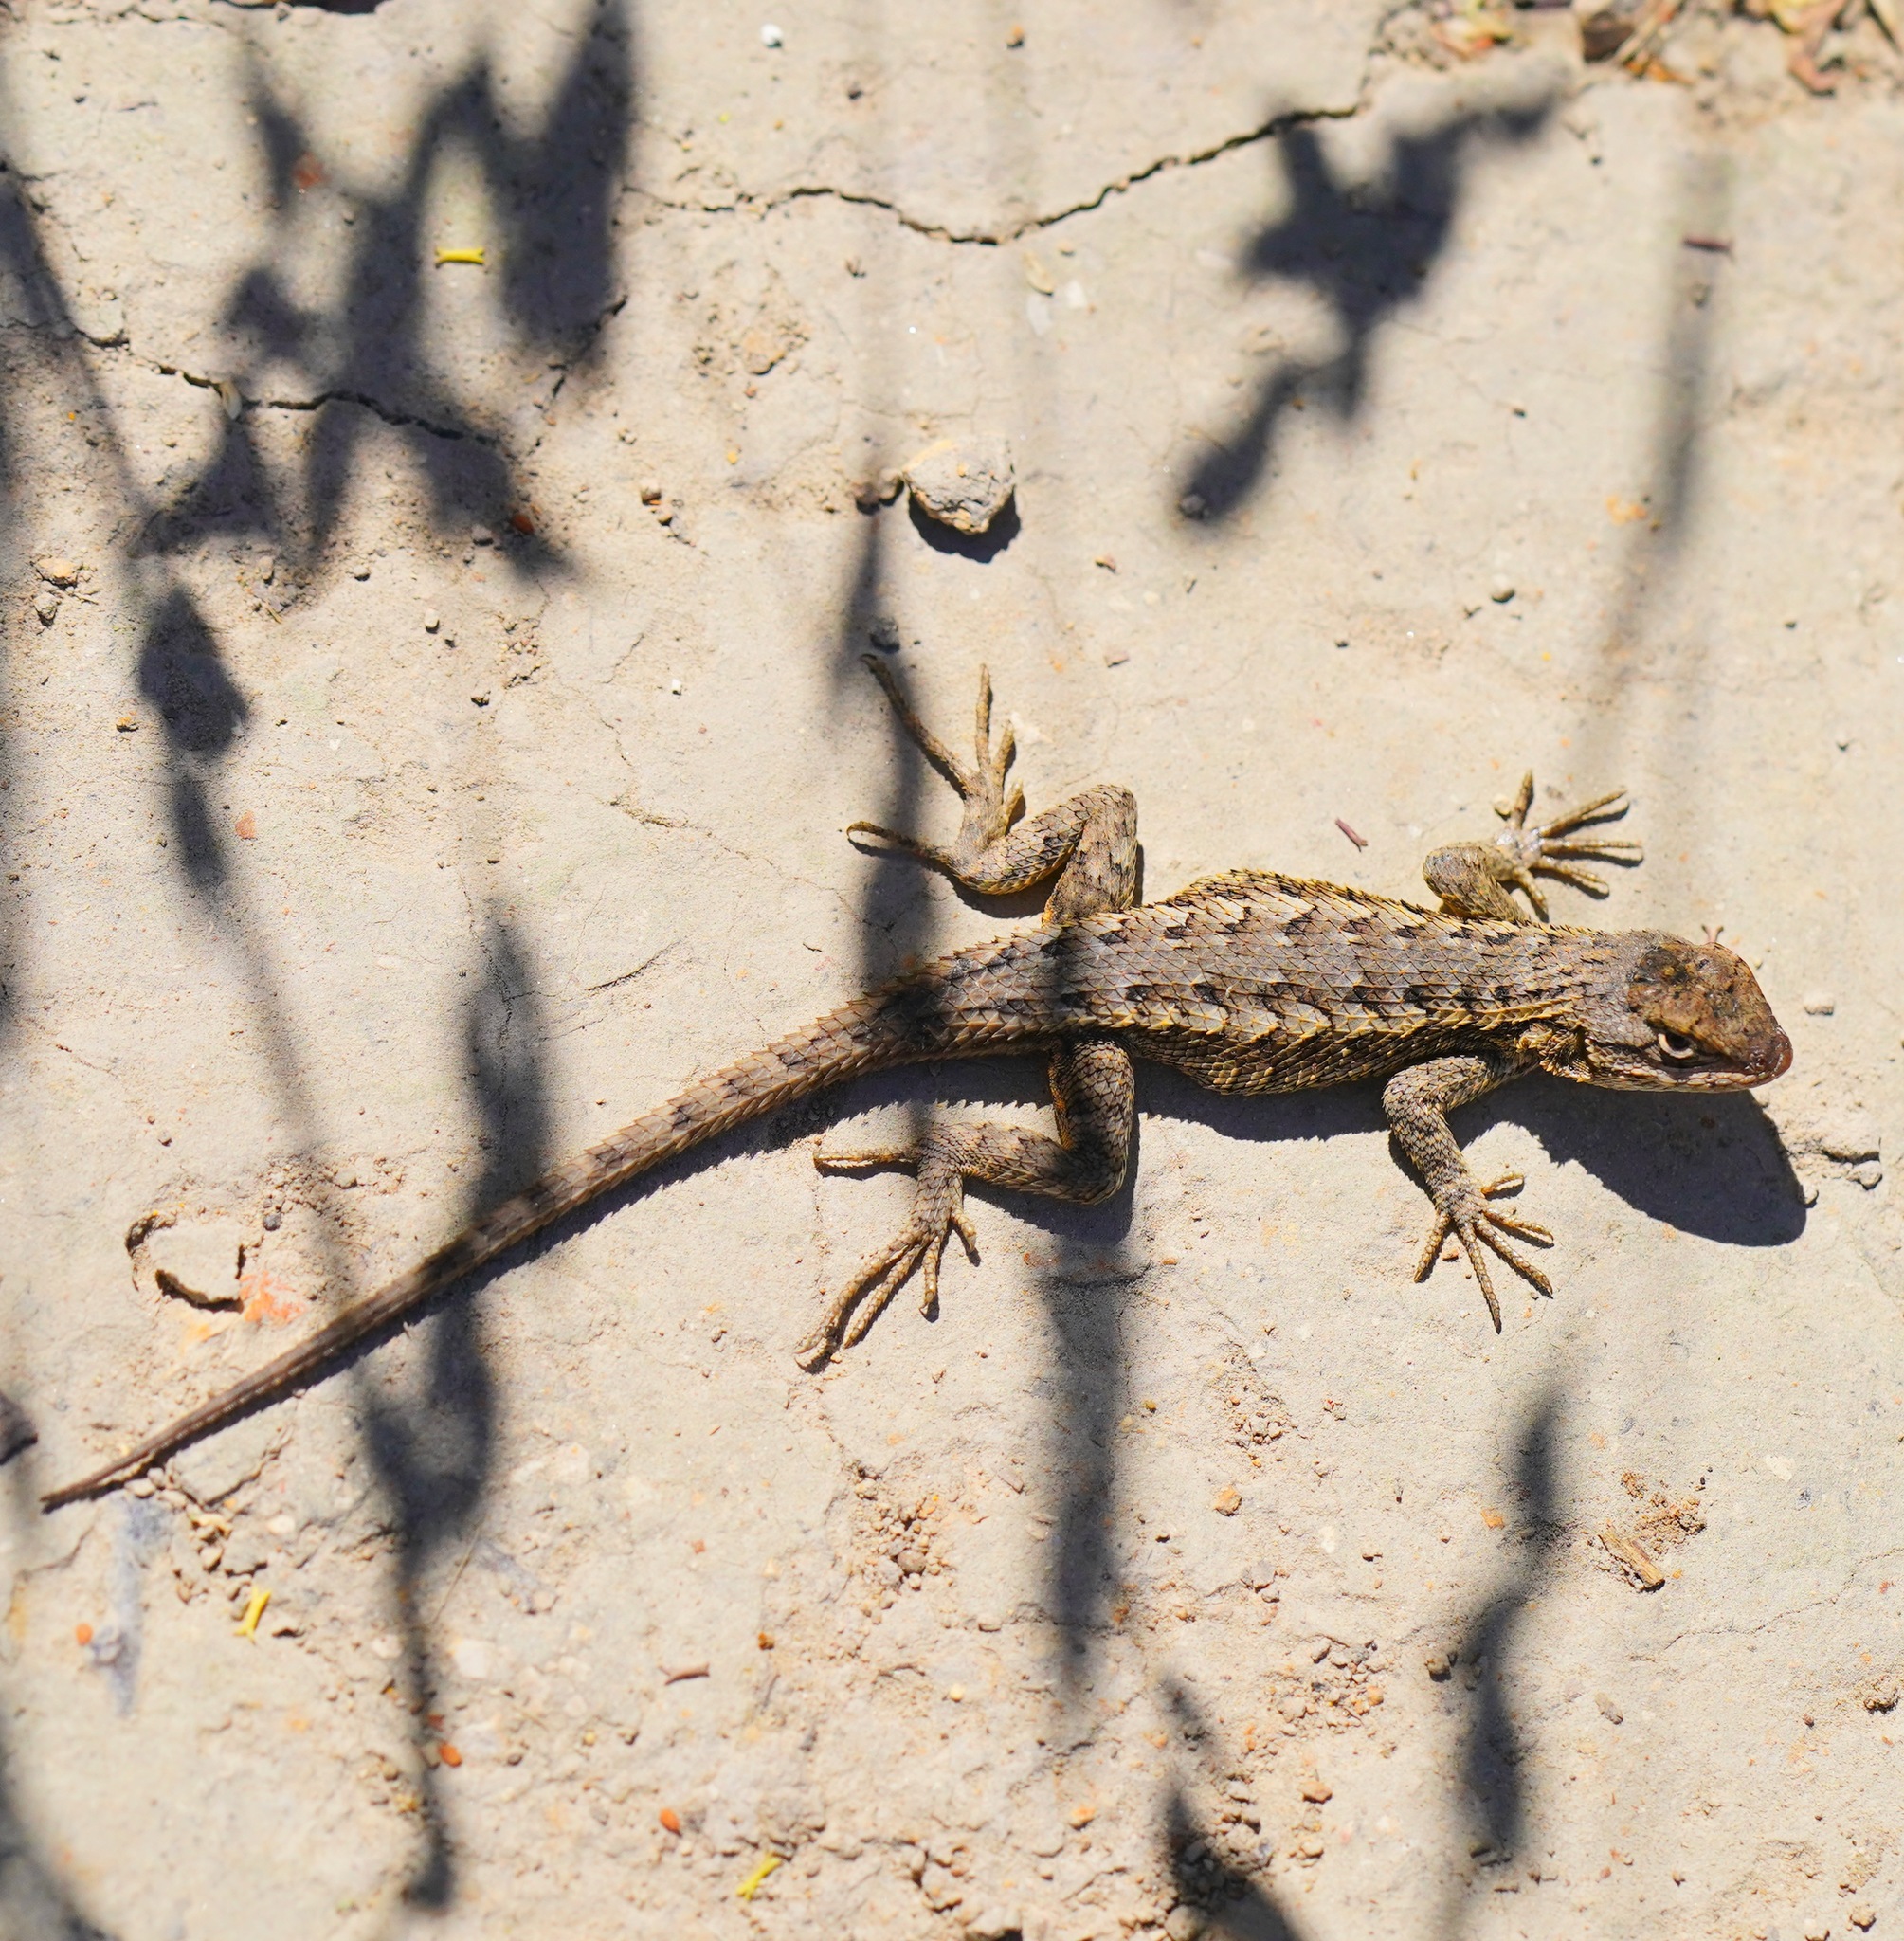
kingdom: Animalia
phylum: Chordata
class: Squamata
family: Phrynosomatidae
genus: Sceloporus
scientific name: Sceloporus occidentalis
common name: Western fence lizard
